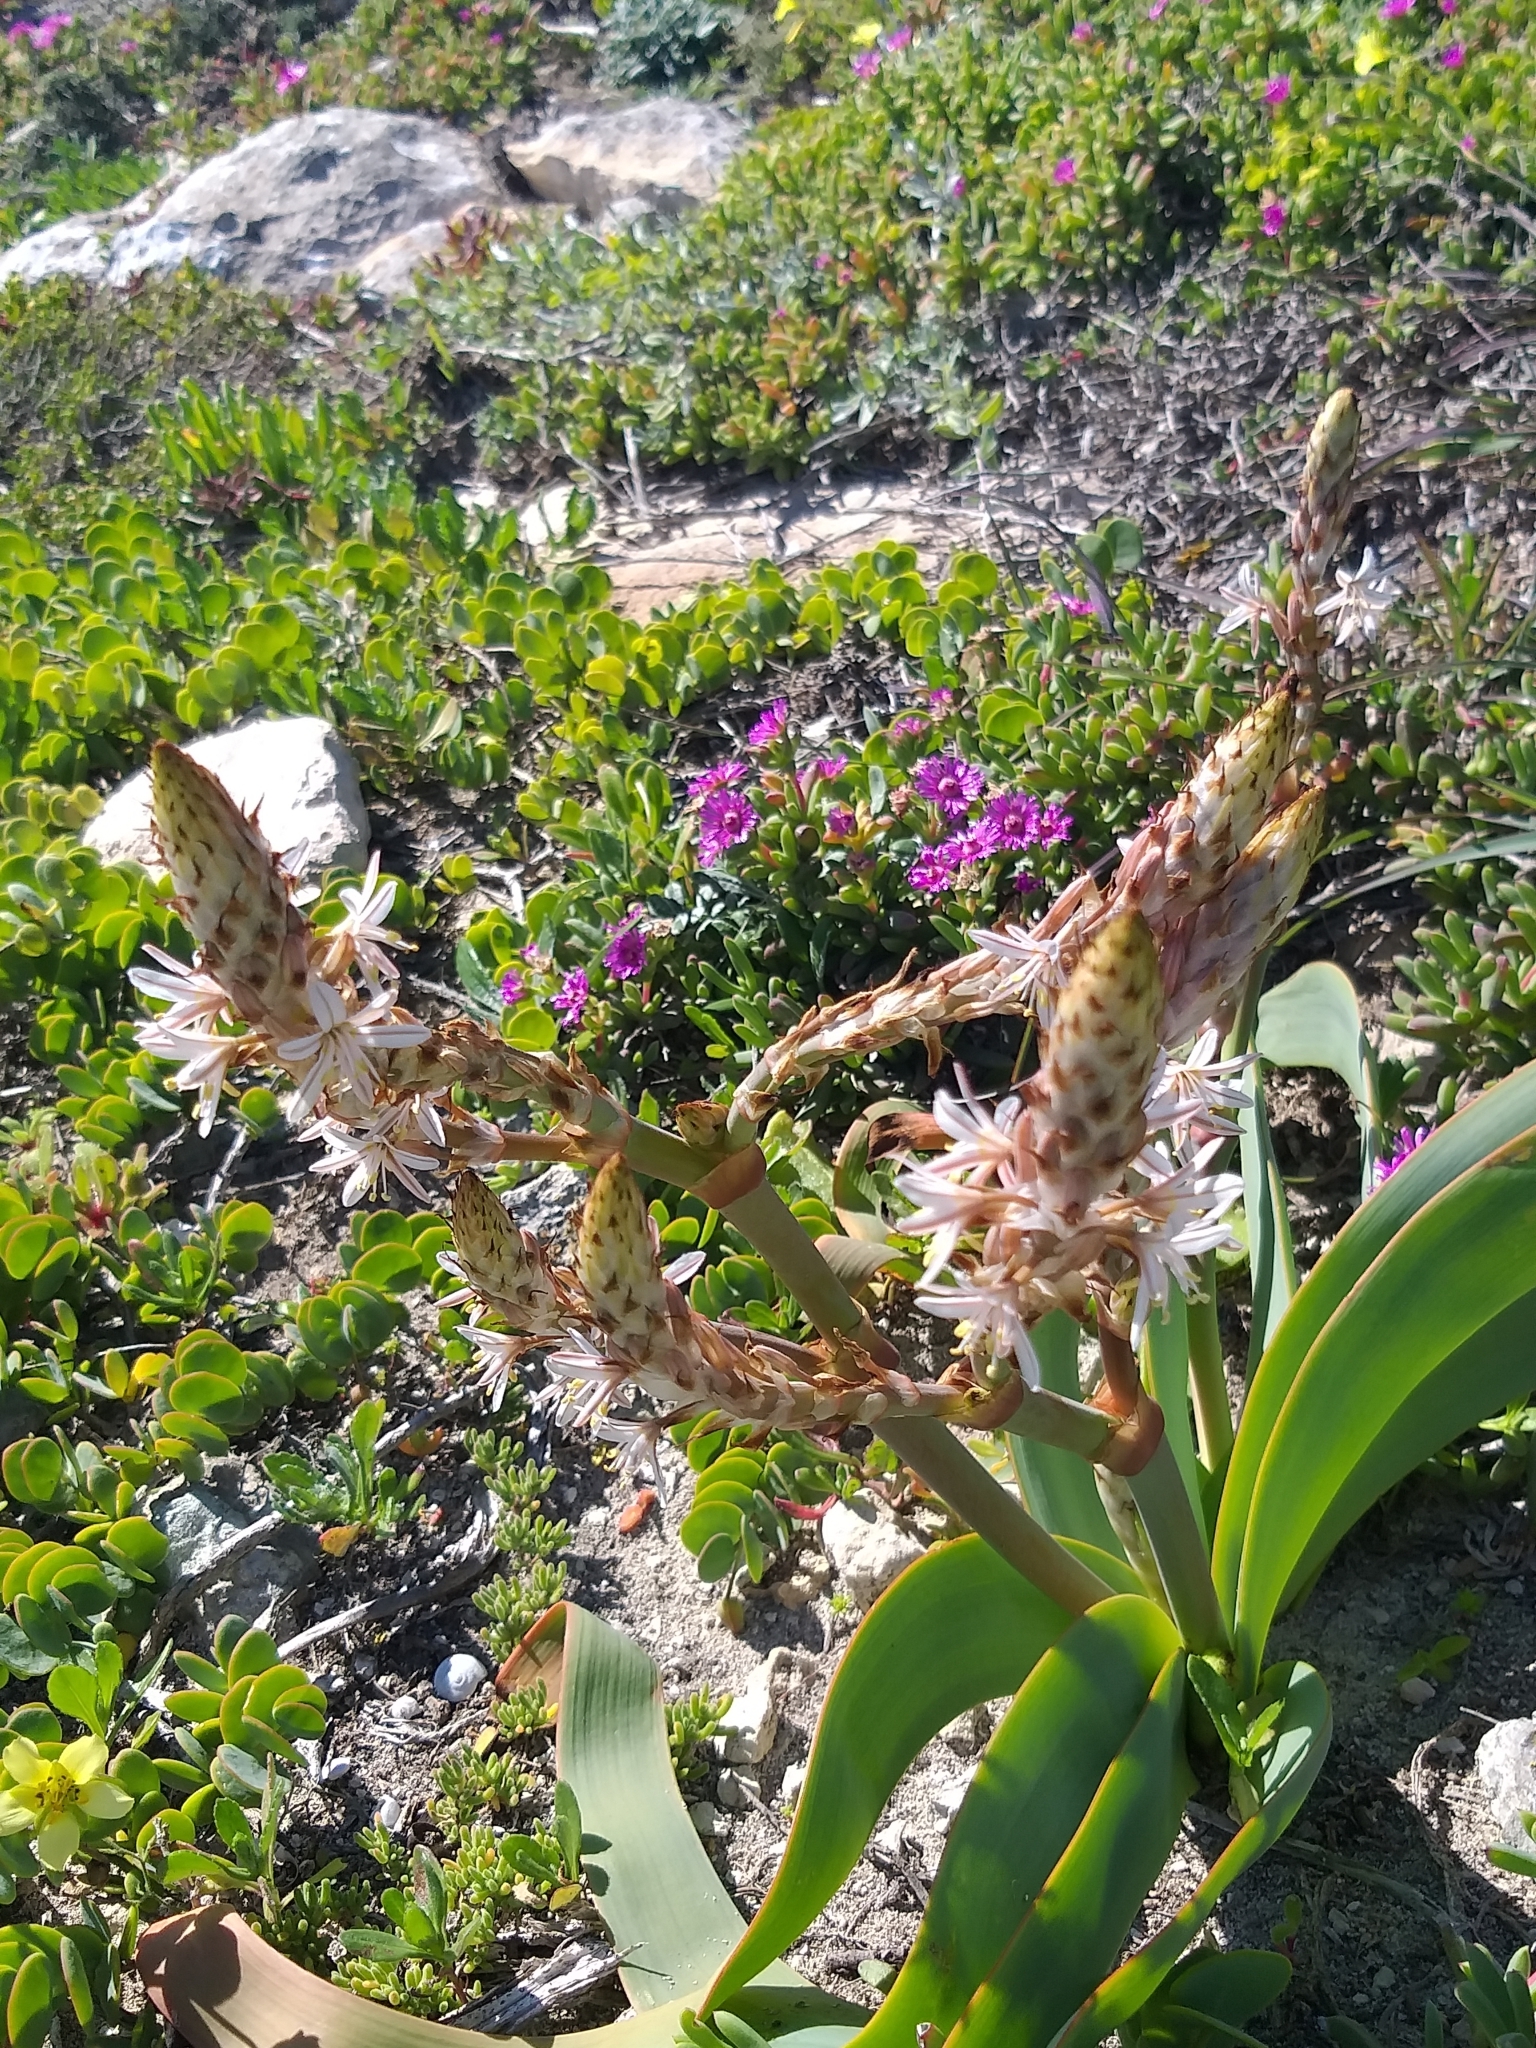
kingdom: Plantae
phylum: Tracheophyta
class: Liliopsida
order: Asparagales
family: Asphodelaceae
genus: Trachyandra
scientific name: Trachyandra falcata
